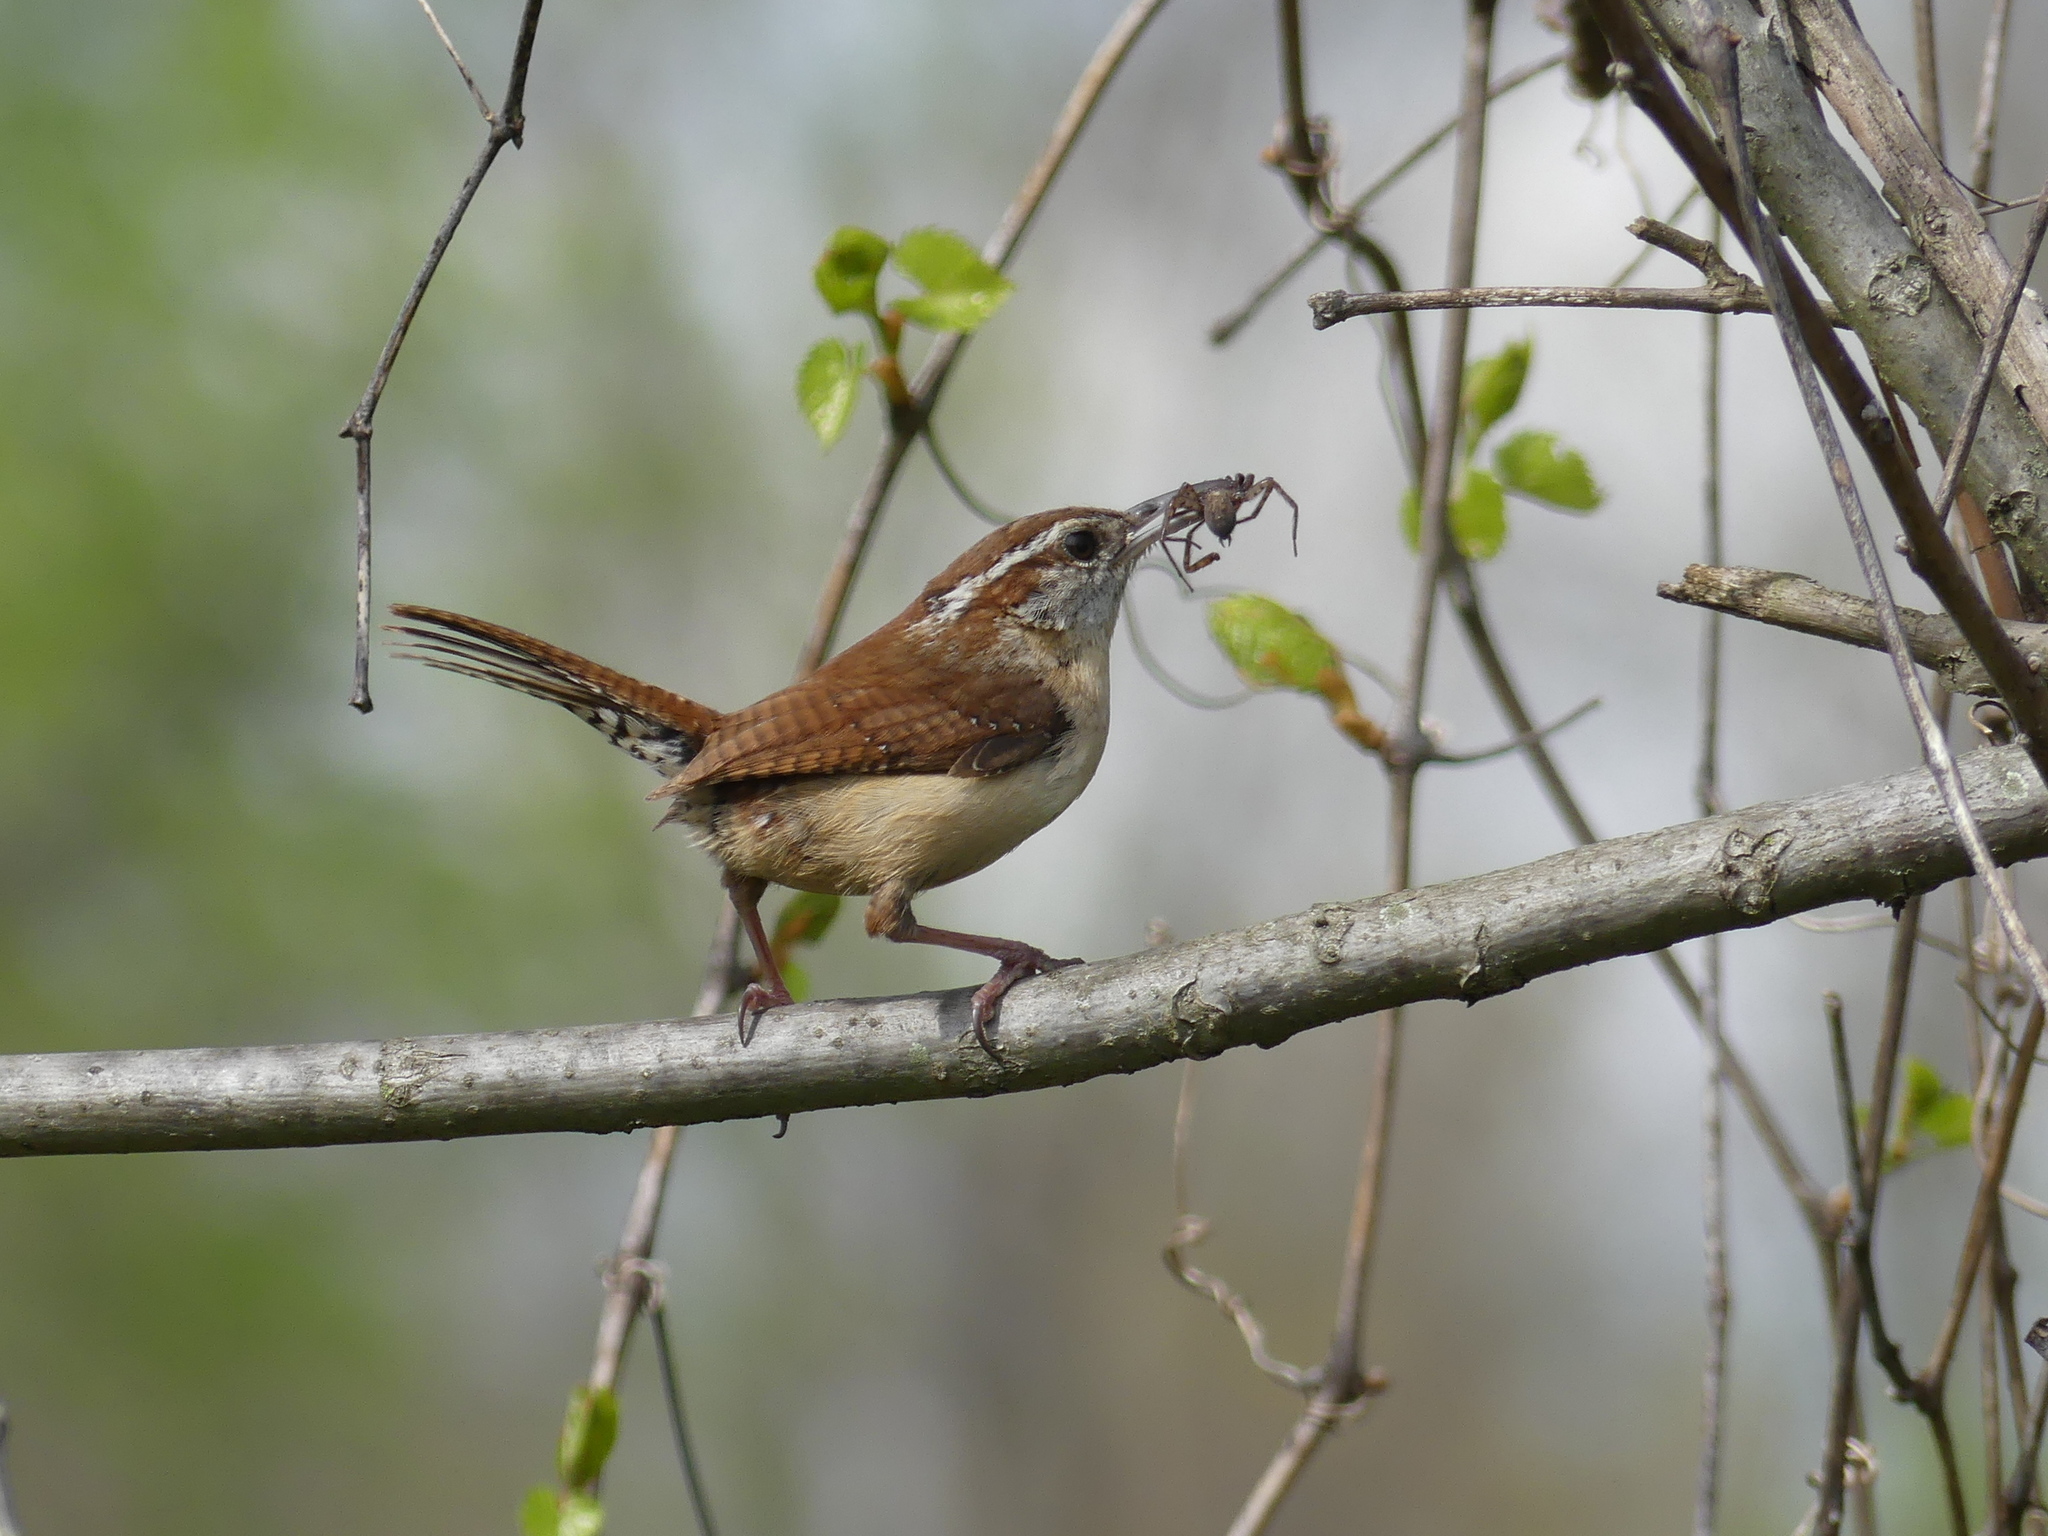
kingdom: Animalia
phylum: Chordata
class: Aves
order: Passeriformes
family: Troglodytidae
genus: Thryothorus
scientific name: Thryothorus ludovicianus
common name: Carolina wren
